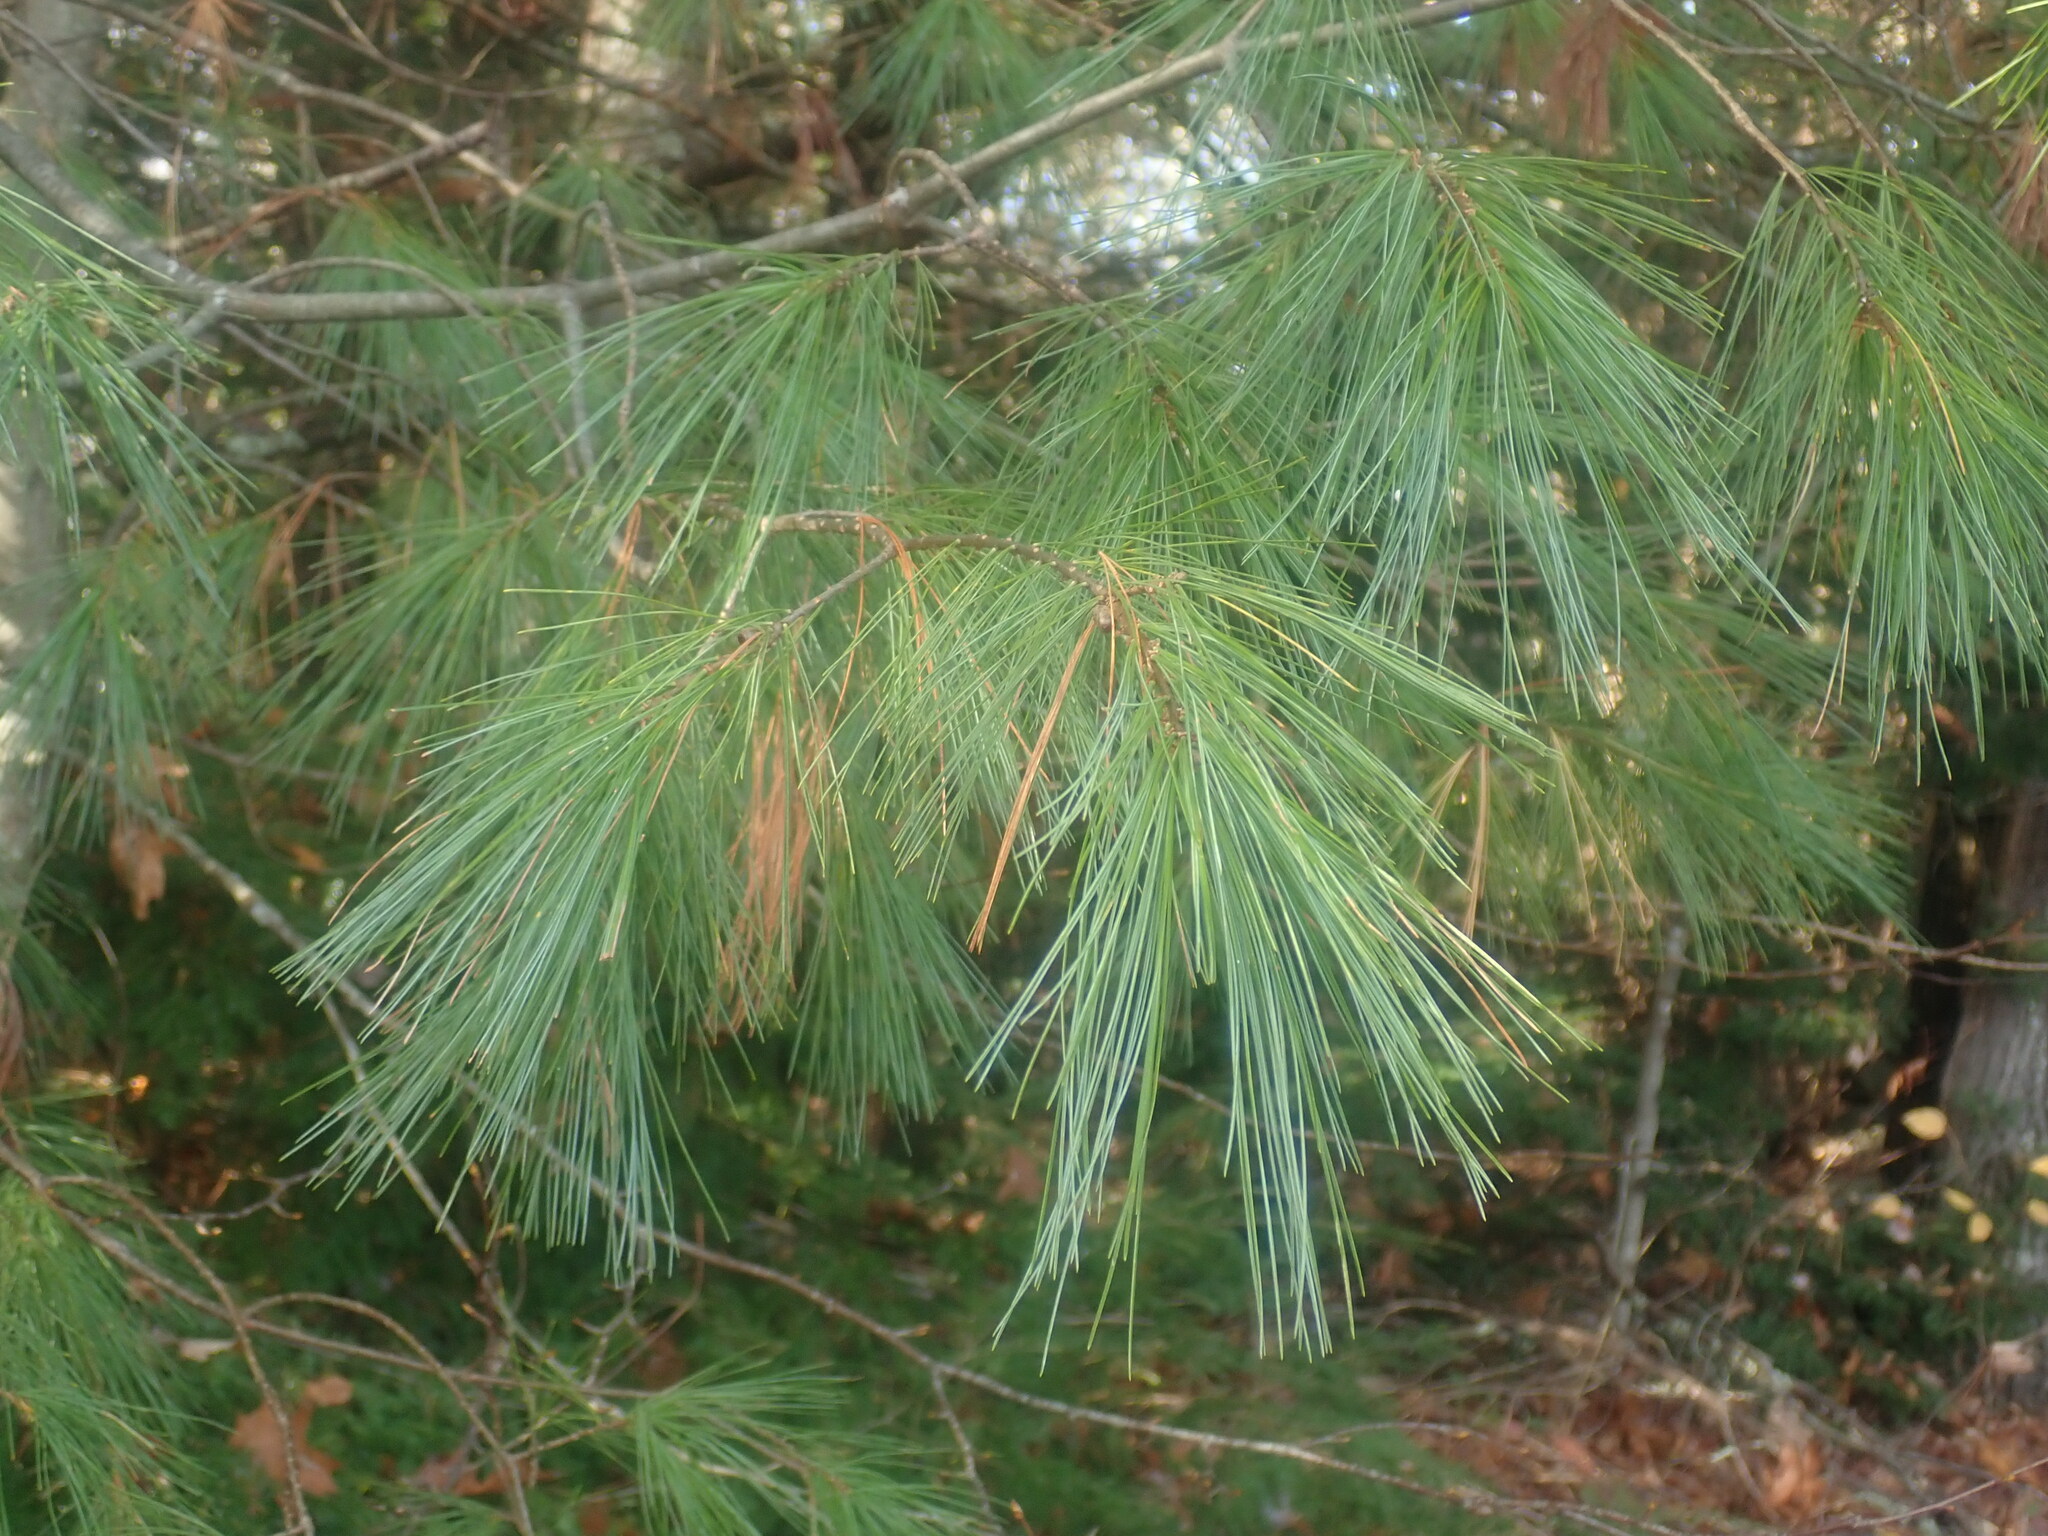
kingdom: Plantae
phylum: Tracheophyta
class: Pinopsida
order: Pinales
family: Pinaceae
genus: Pinus
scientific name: Pinus strobus
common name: Weymouth pine
